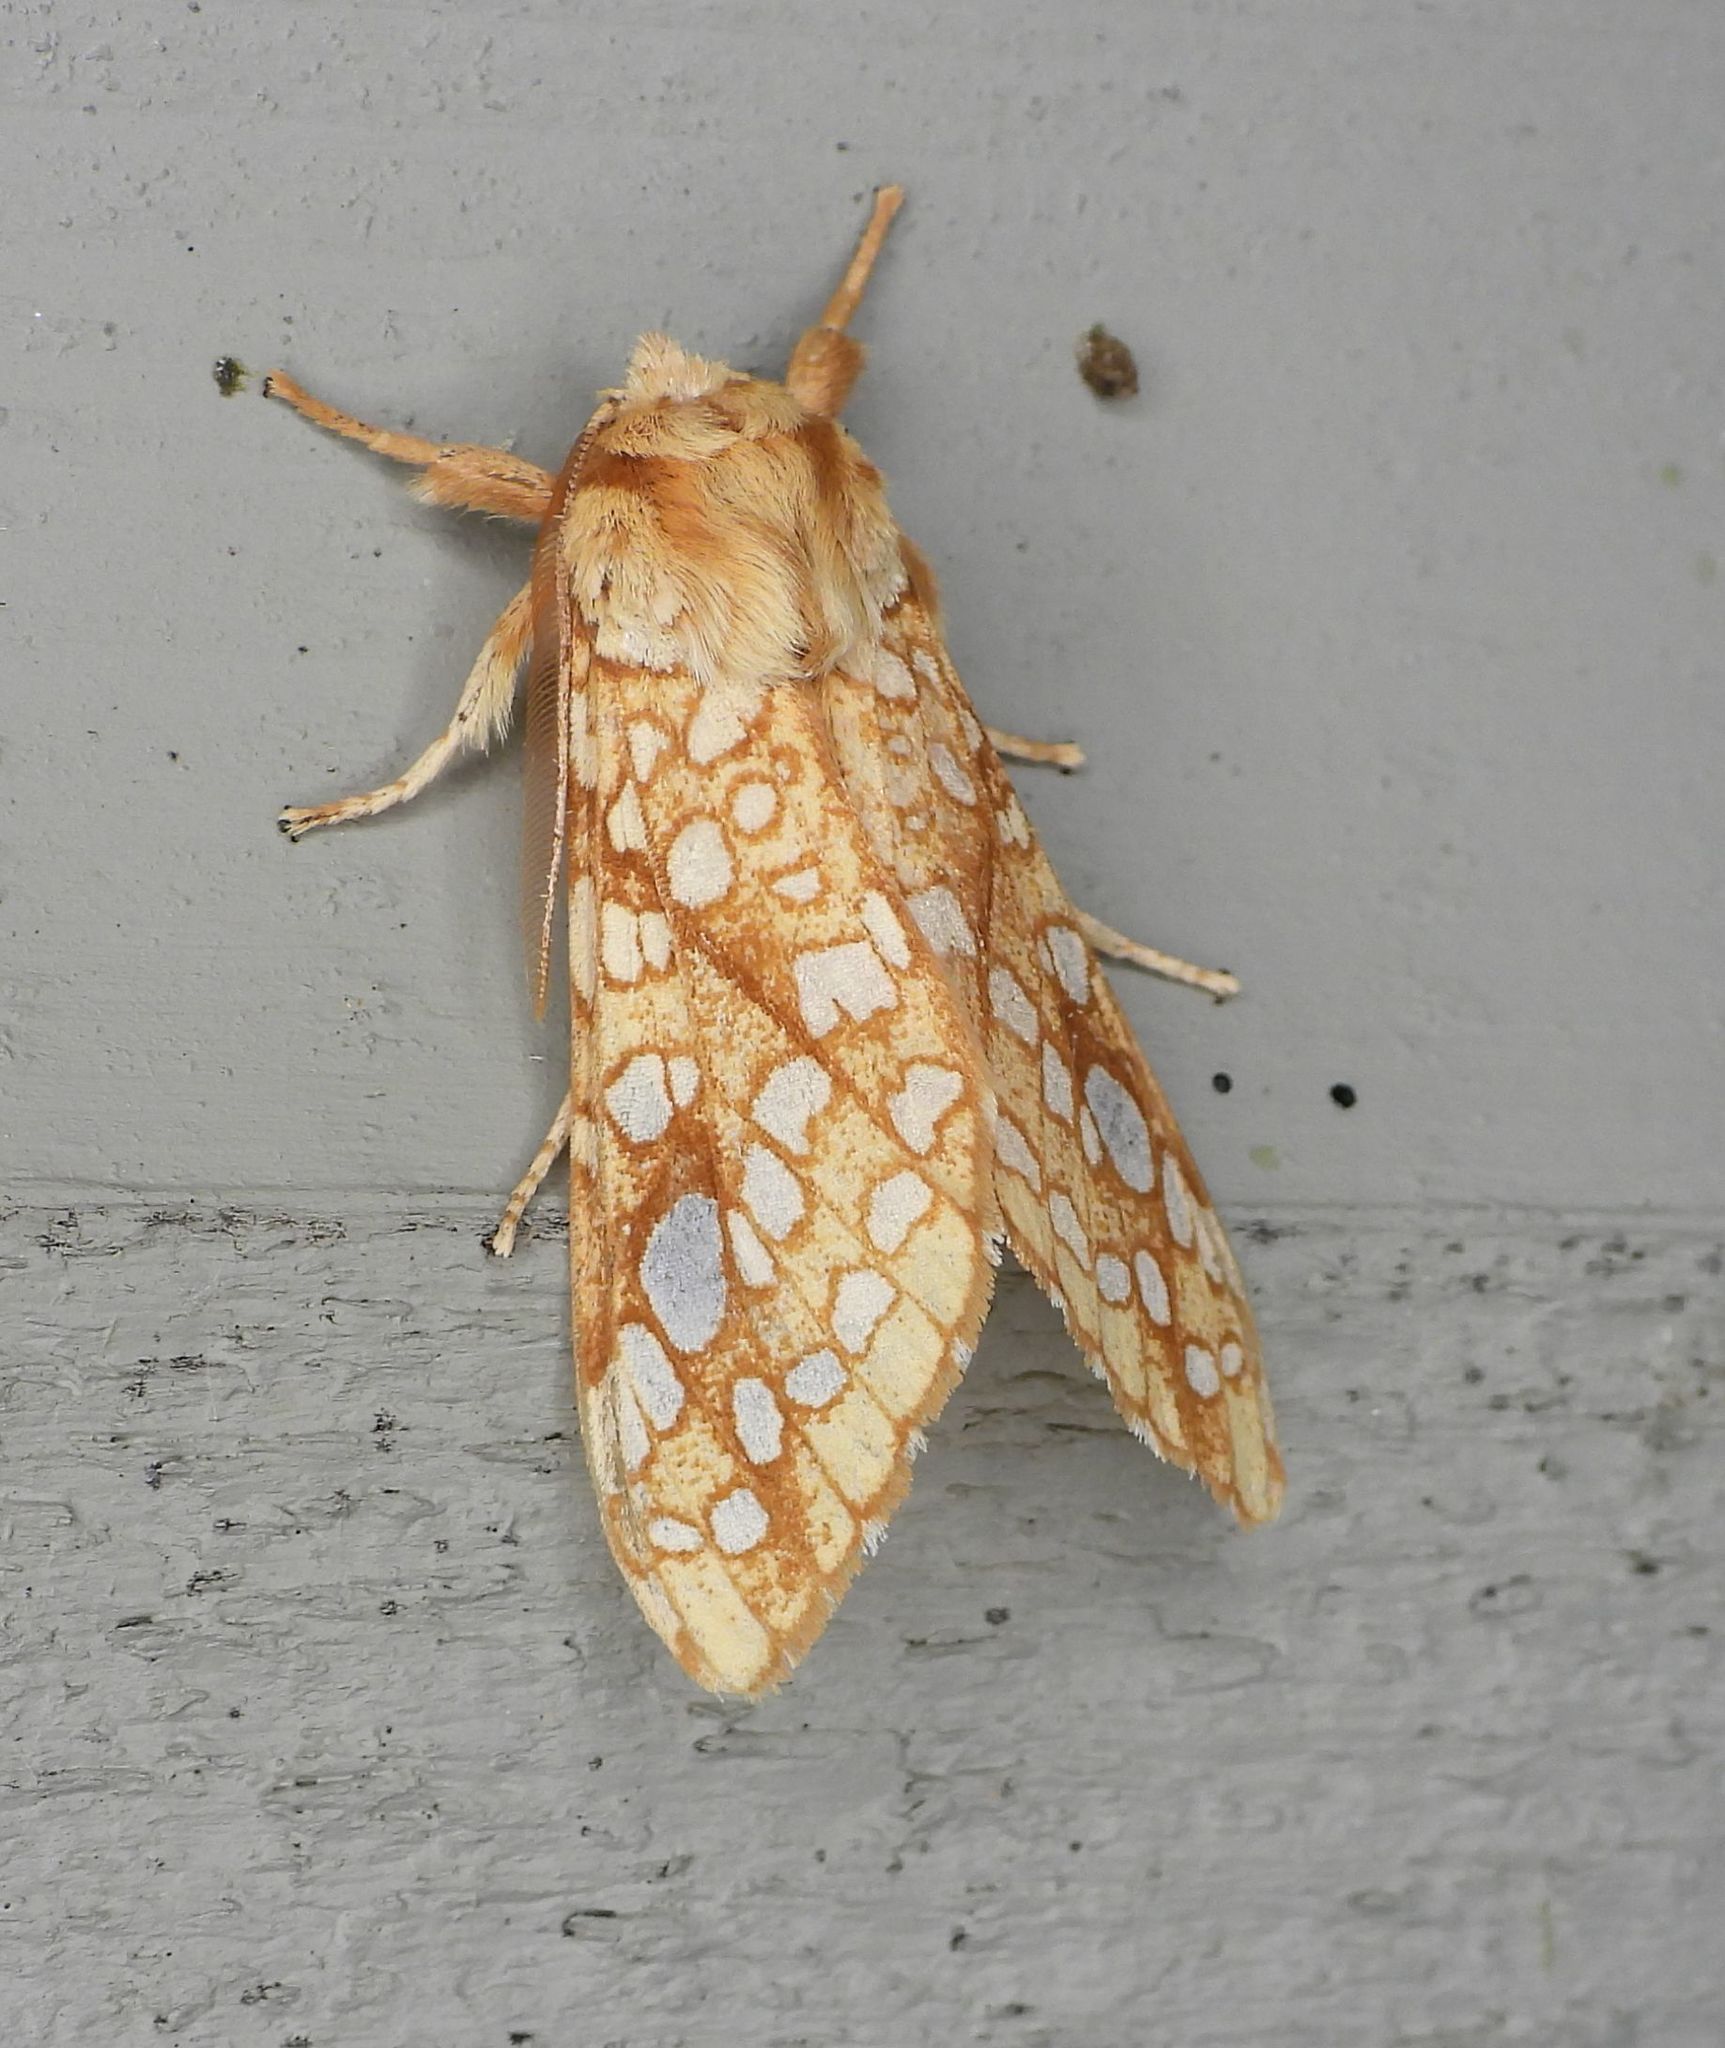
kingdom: Animalia
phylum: Arthropoda
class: Insecta
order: Lepidoptera
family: Erebidae
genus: Lophocampa
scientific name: Lophocampa caryae
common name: Hickory tussock moth
